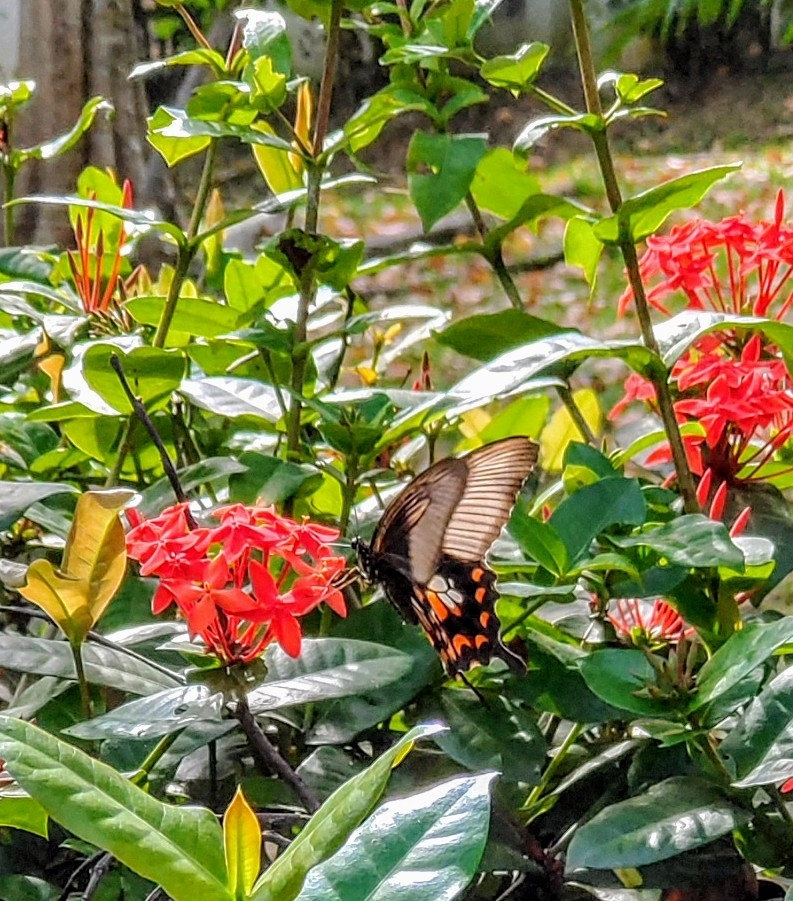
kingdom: Animalia
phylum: Arthropoda
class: Insecta
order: Lepidoptera
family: Papilionidae
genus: Papilio
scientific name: Papilio polytes
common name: Common mormon
